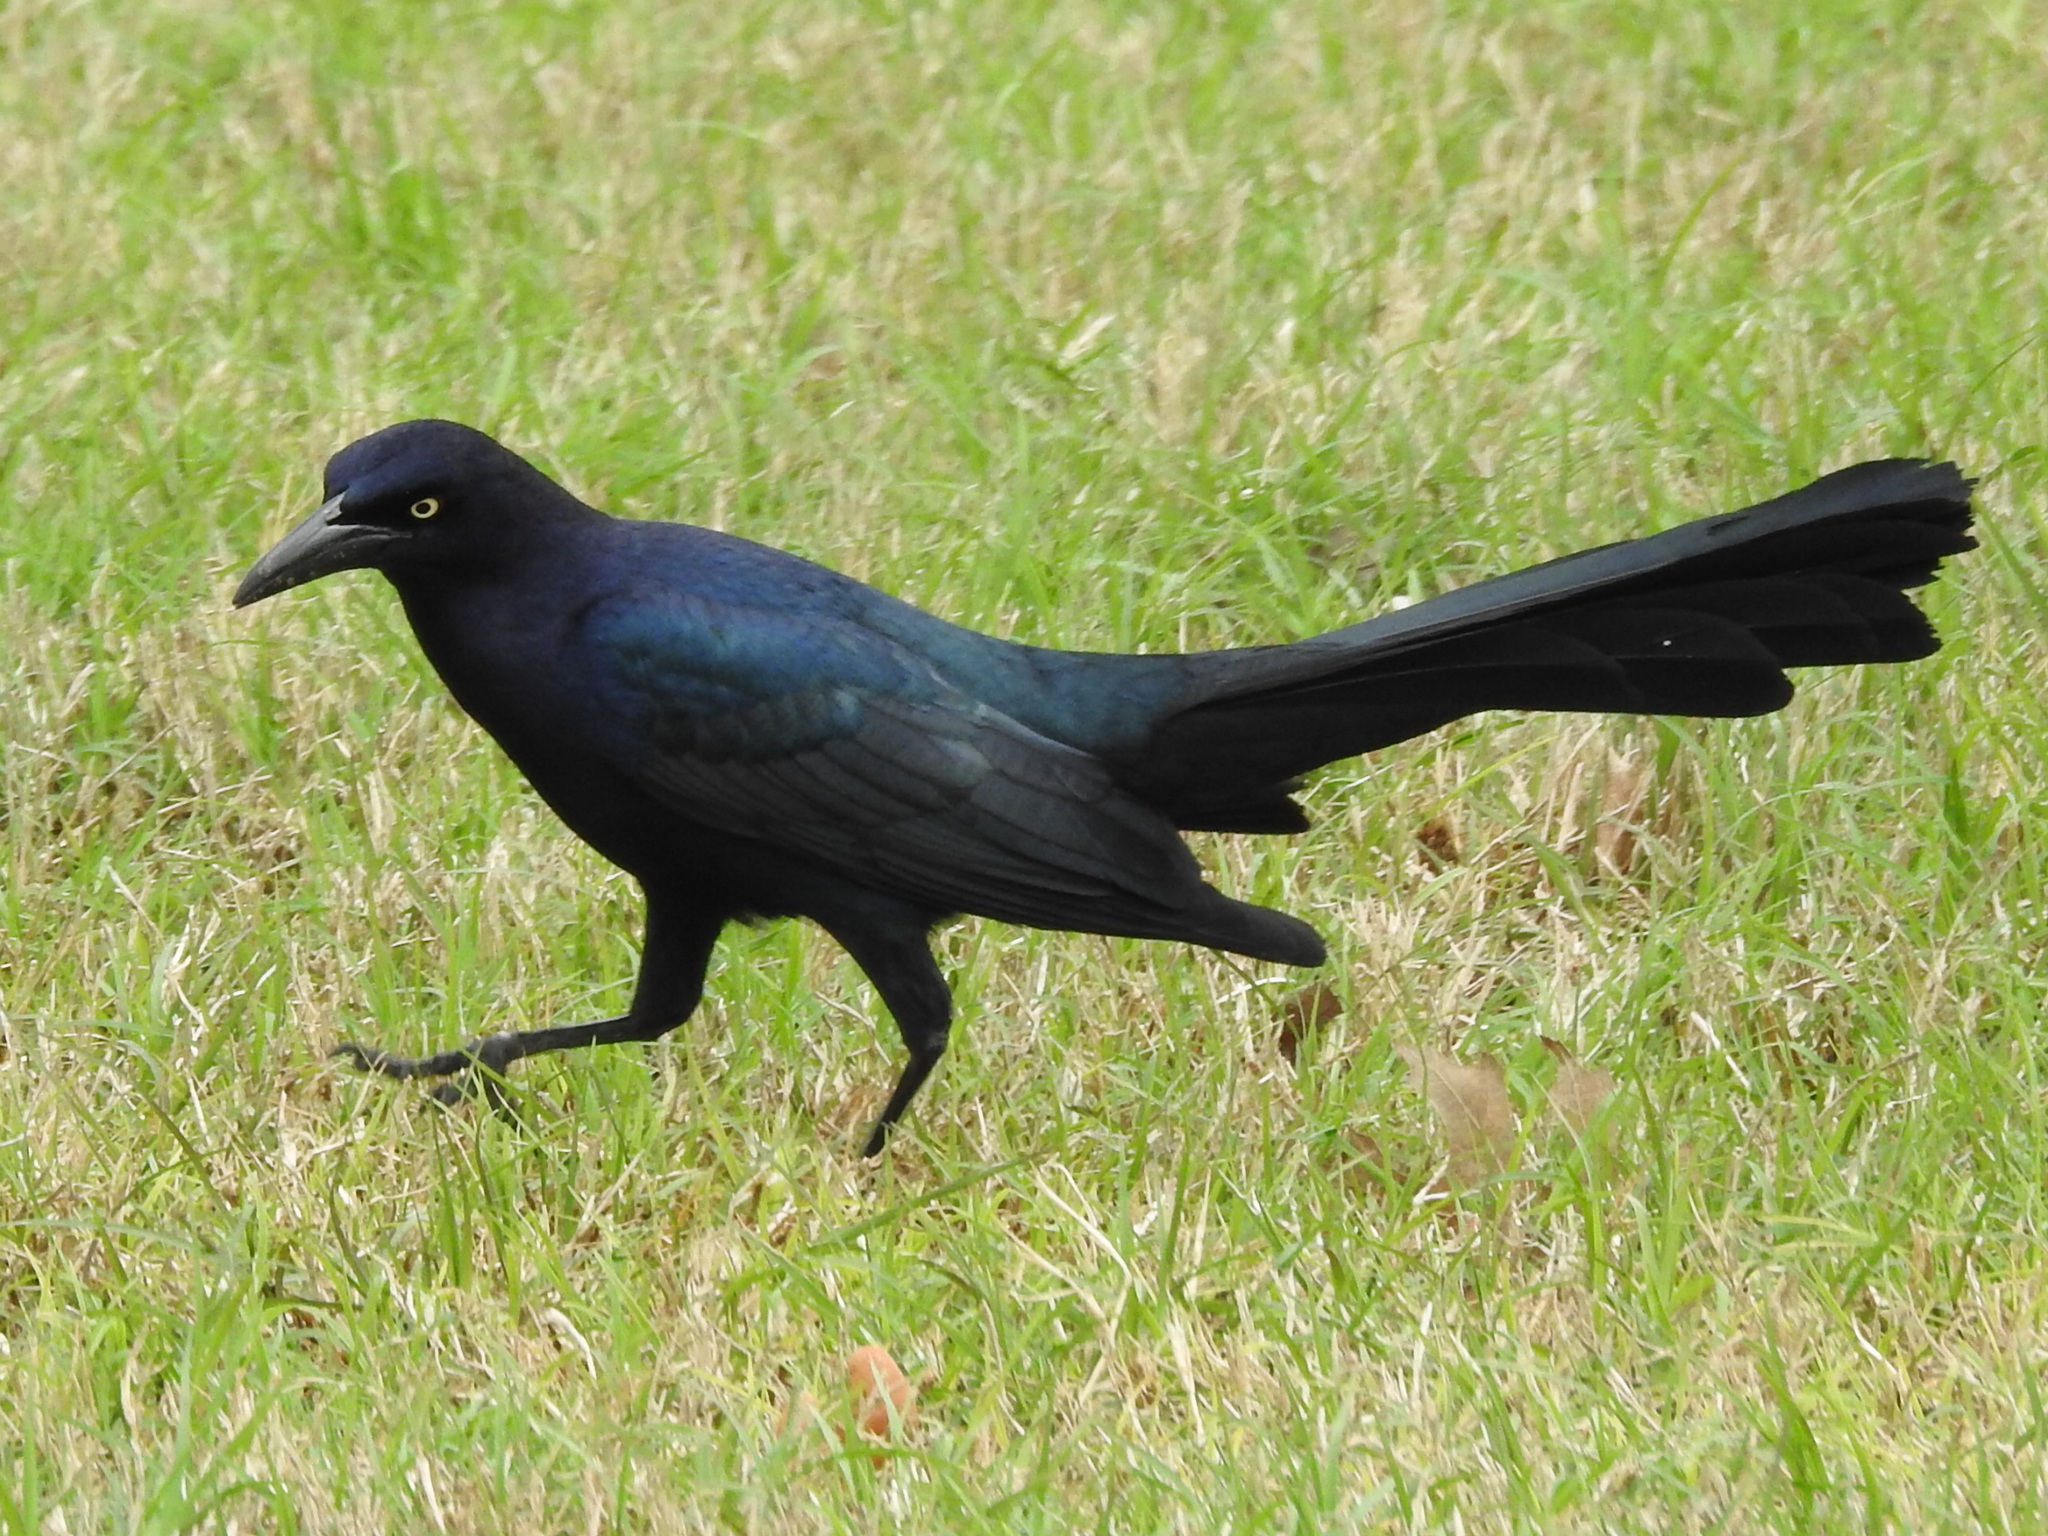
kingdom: Animalia
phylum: Chordata
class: Aves
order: Passeriformes
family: Icteridae
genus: Quiscalus
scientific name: Quiscalus mexicanus
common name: Great-tailed grackle
